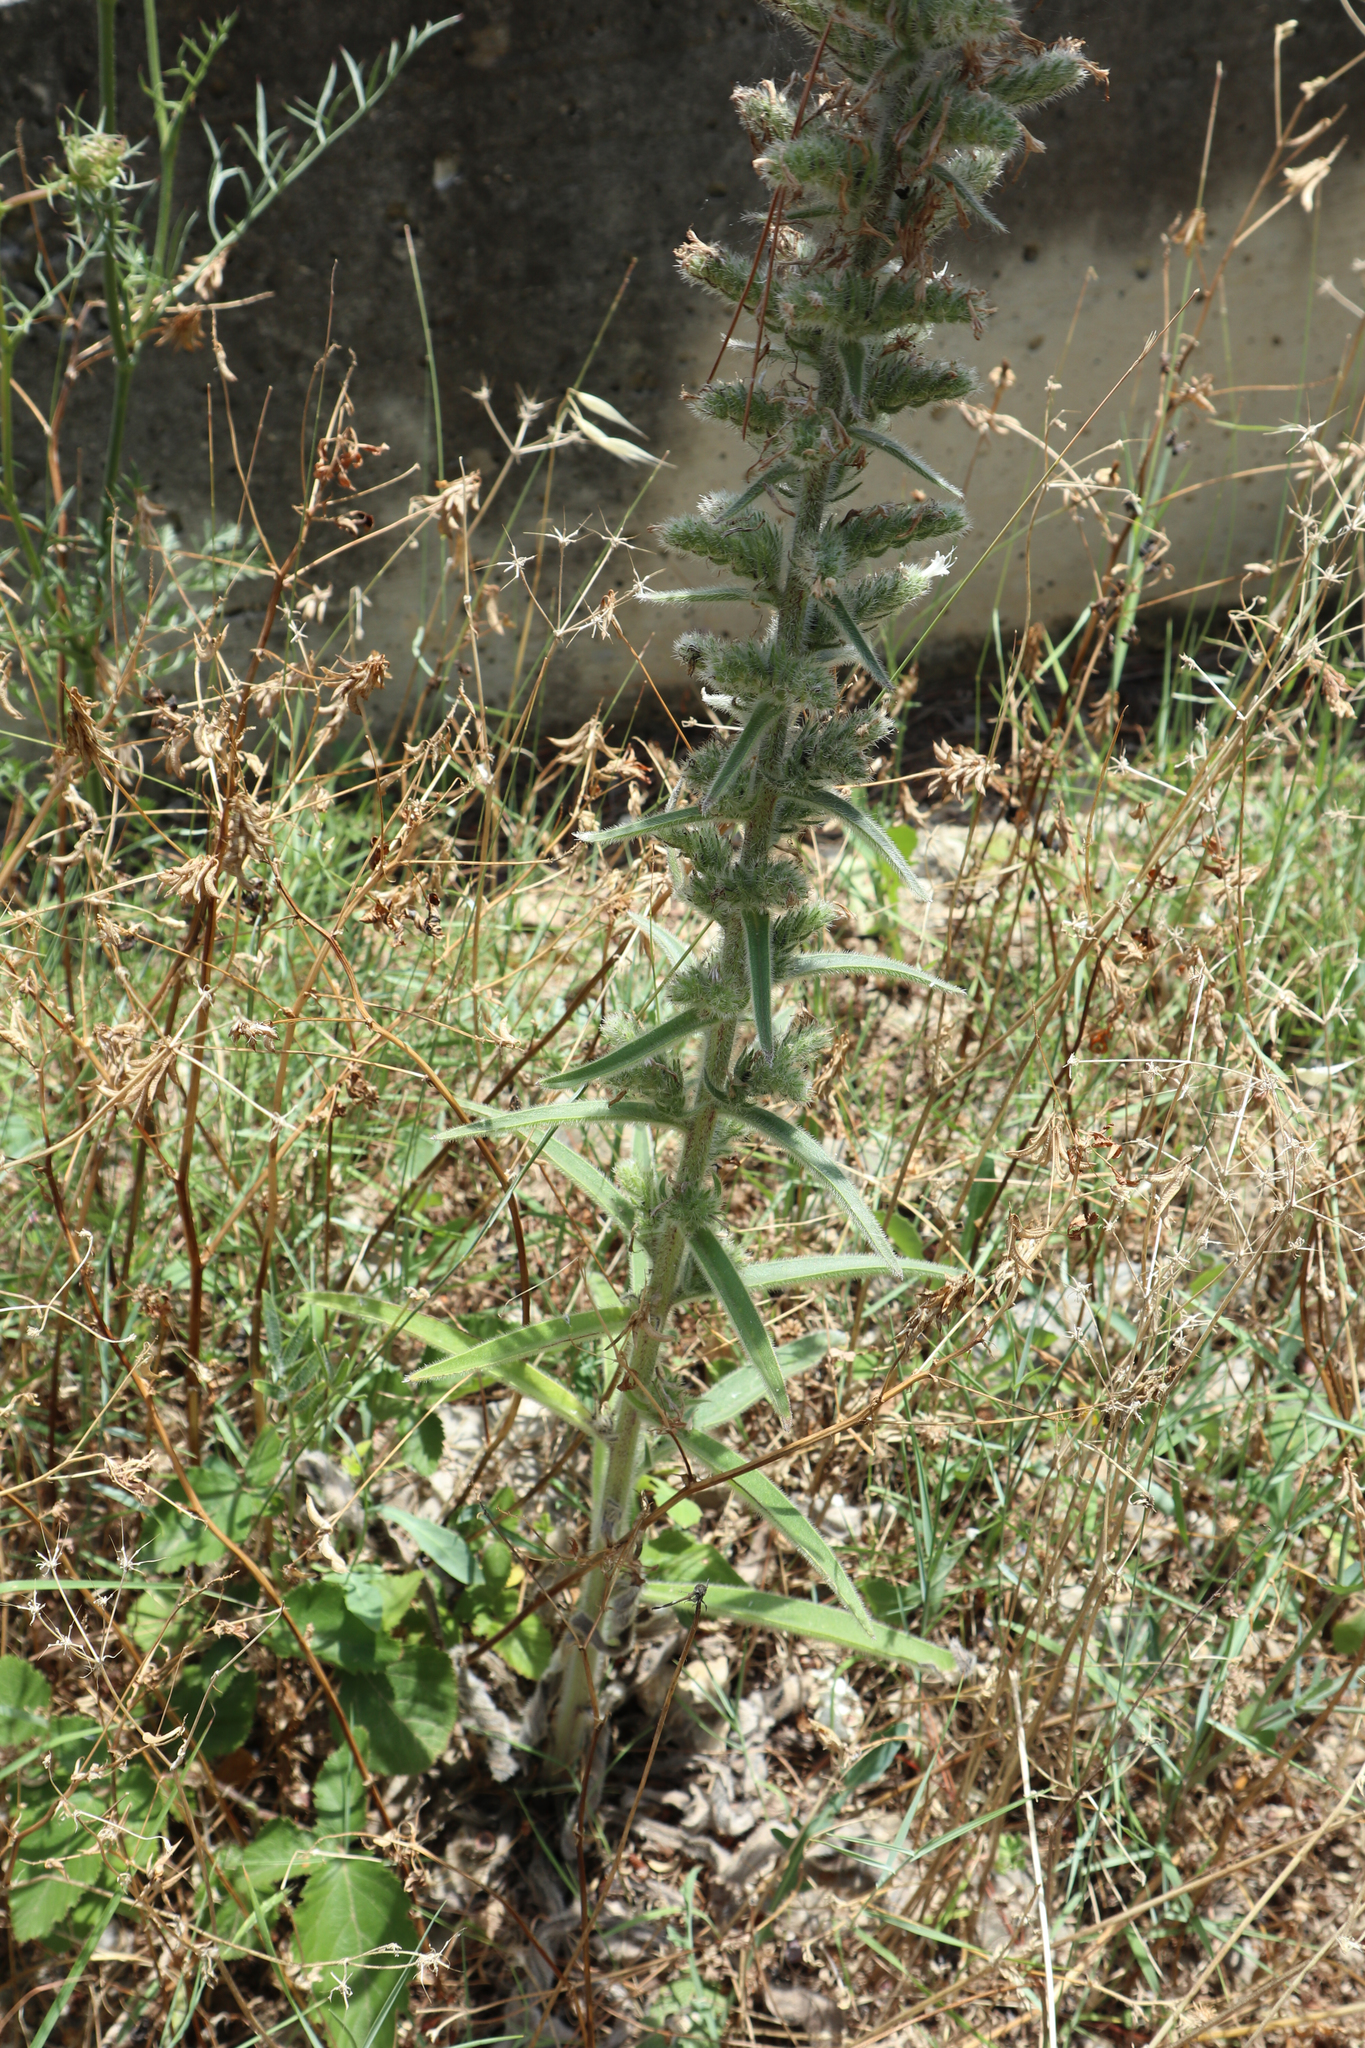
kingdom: Plantae
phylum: Tracheophyta
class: Magnoliopsida
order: Boraginales
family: Boraginaceae
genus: Echium
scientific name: Echium italicum
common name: Italian viper's bugloss
